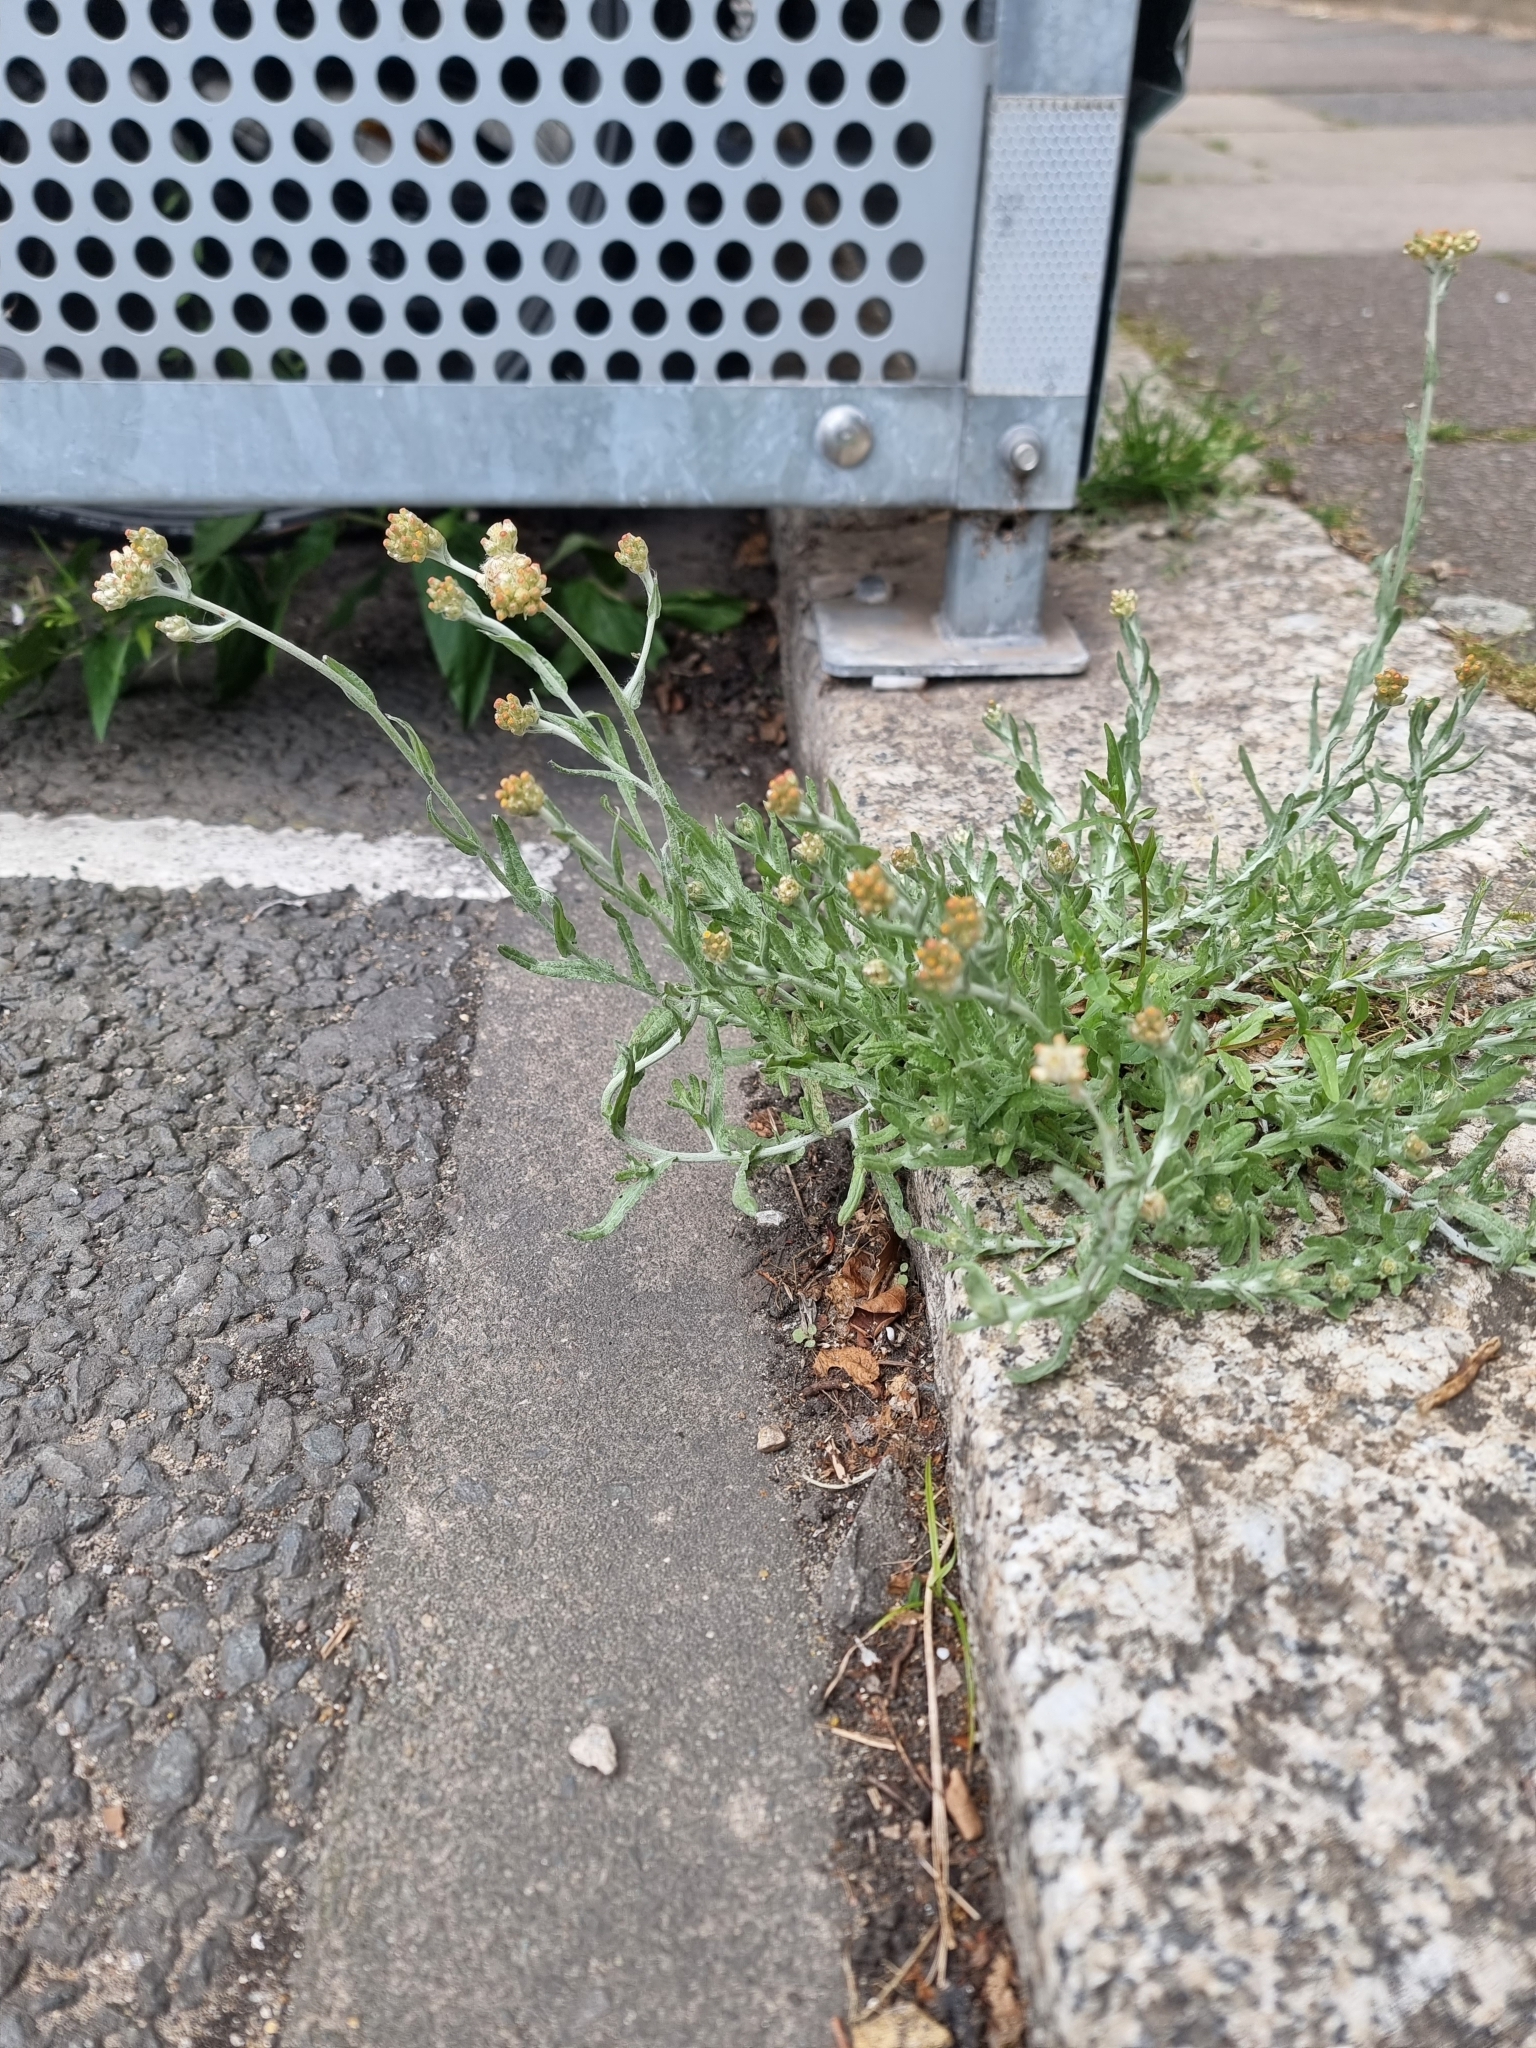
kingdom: Plantae
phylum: Tracheophyta
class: Magnoliopsida
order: Asterales
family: Asteraceae
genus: Helichrysum
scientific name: Helichrysum luteoalbum
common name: Daisy
